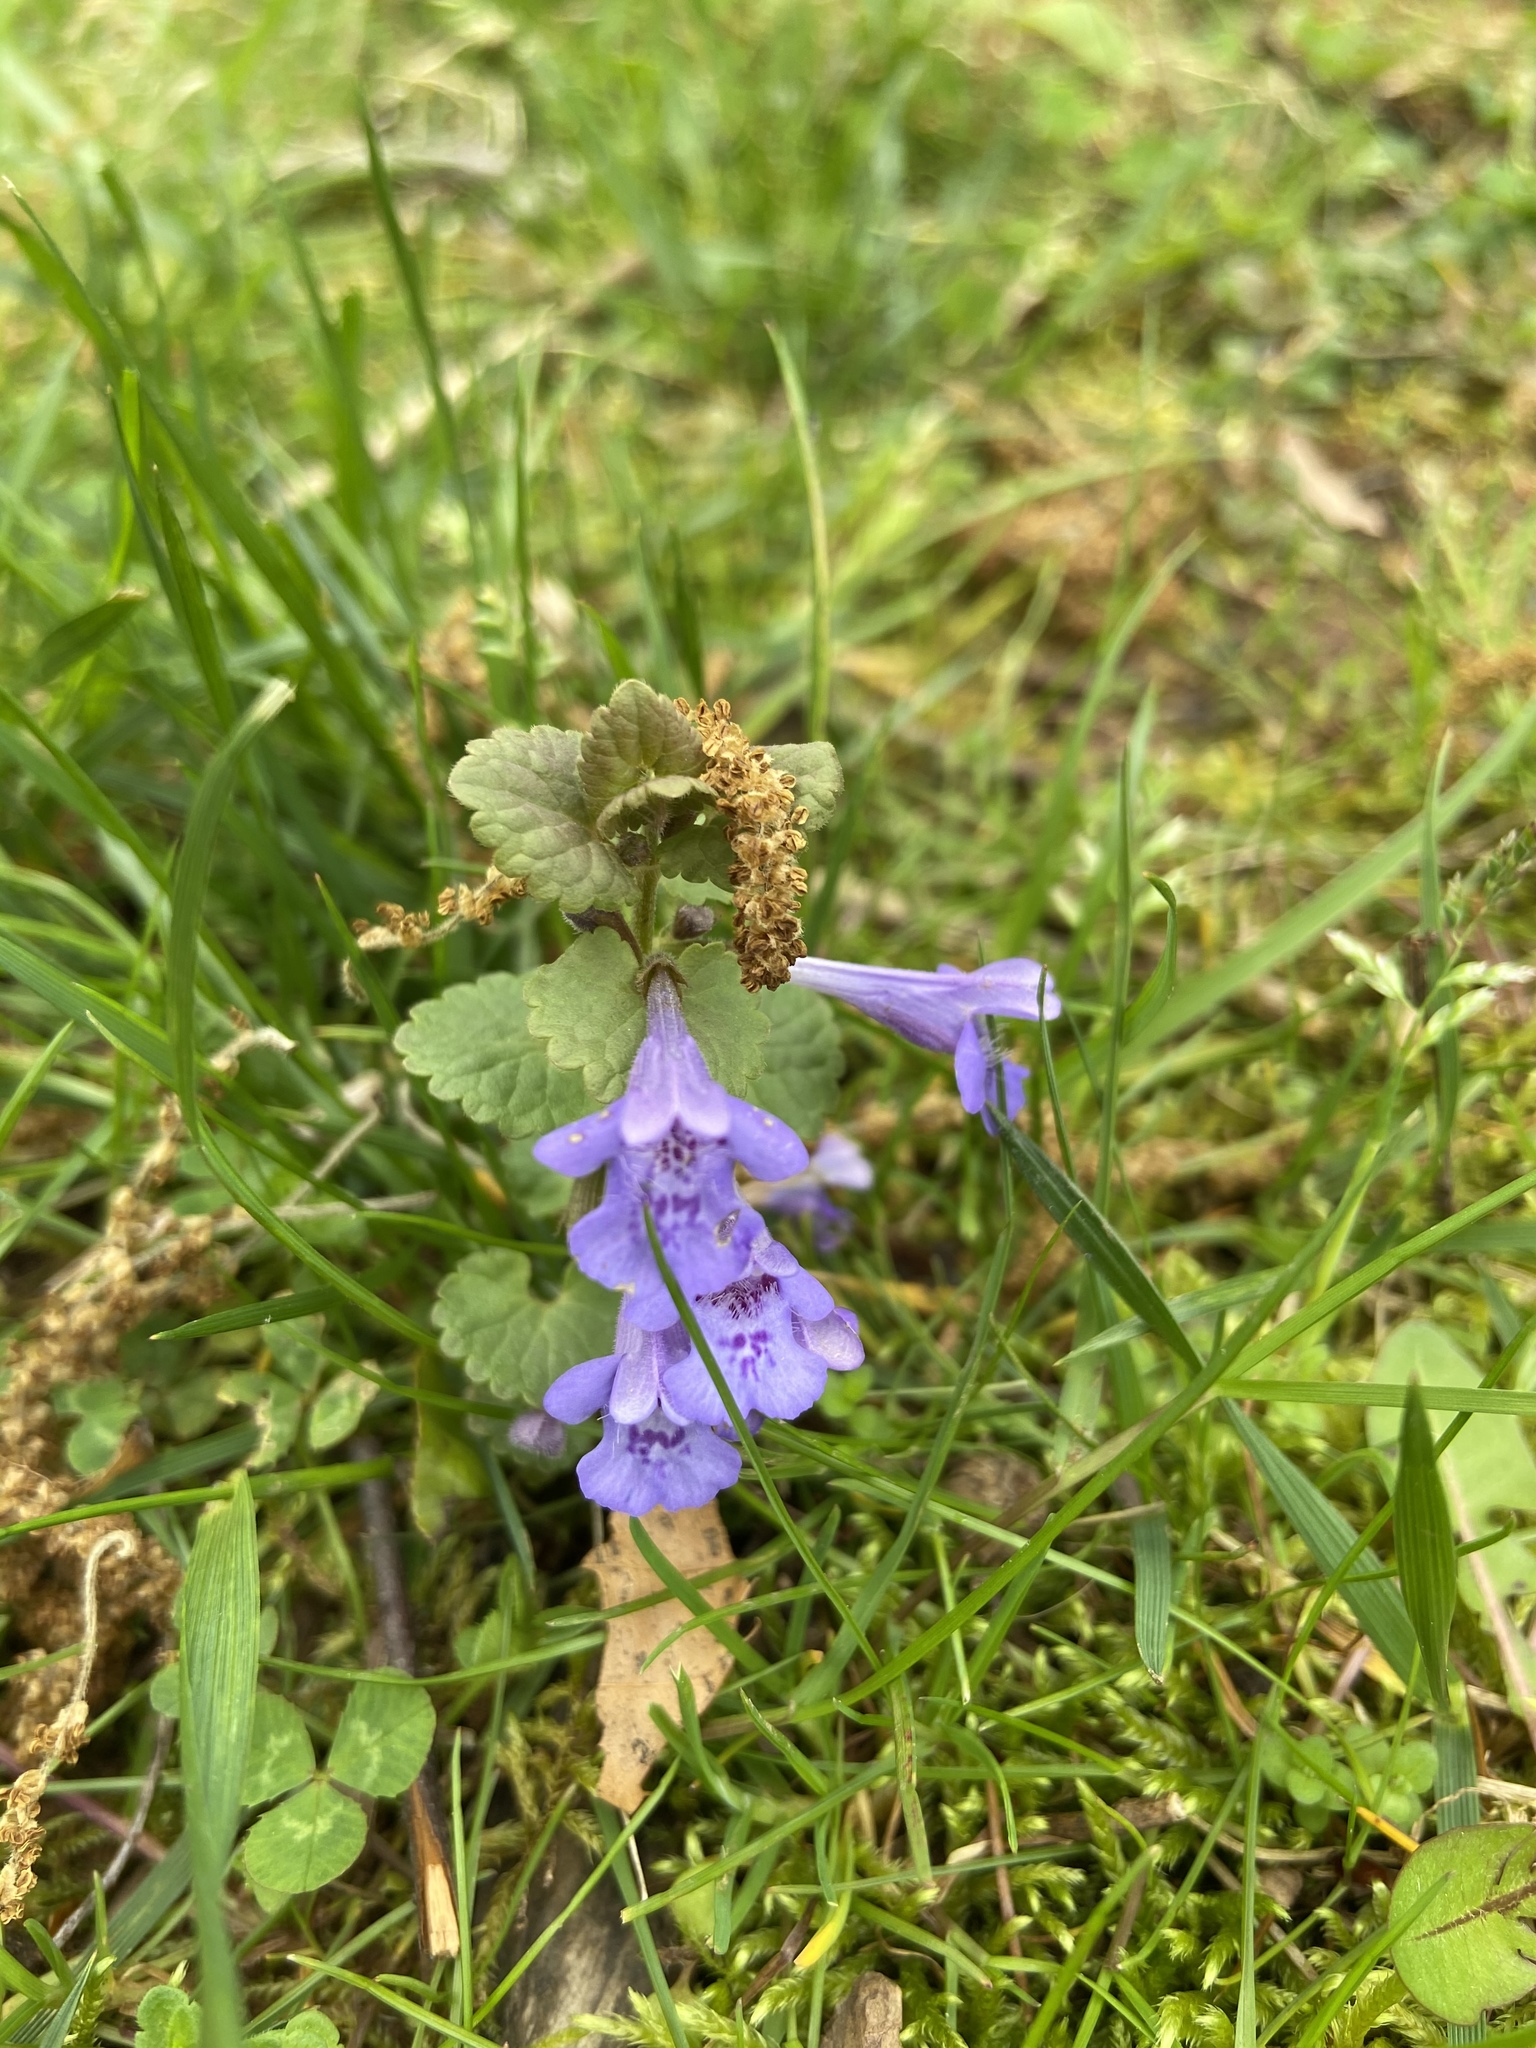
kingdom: Plantae
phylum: Tracheophyta
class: Magnoliopsida
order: Lamiales
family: Lamiaceae
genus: Glechoma
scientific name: Glechoma hederacea
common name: Ground ivy
